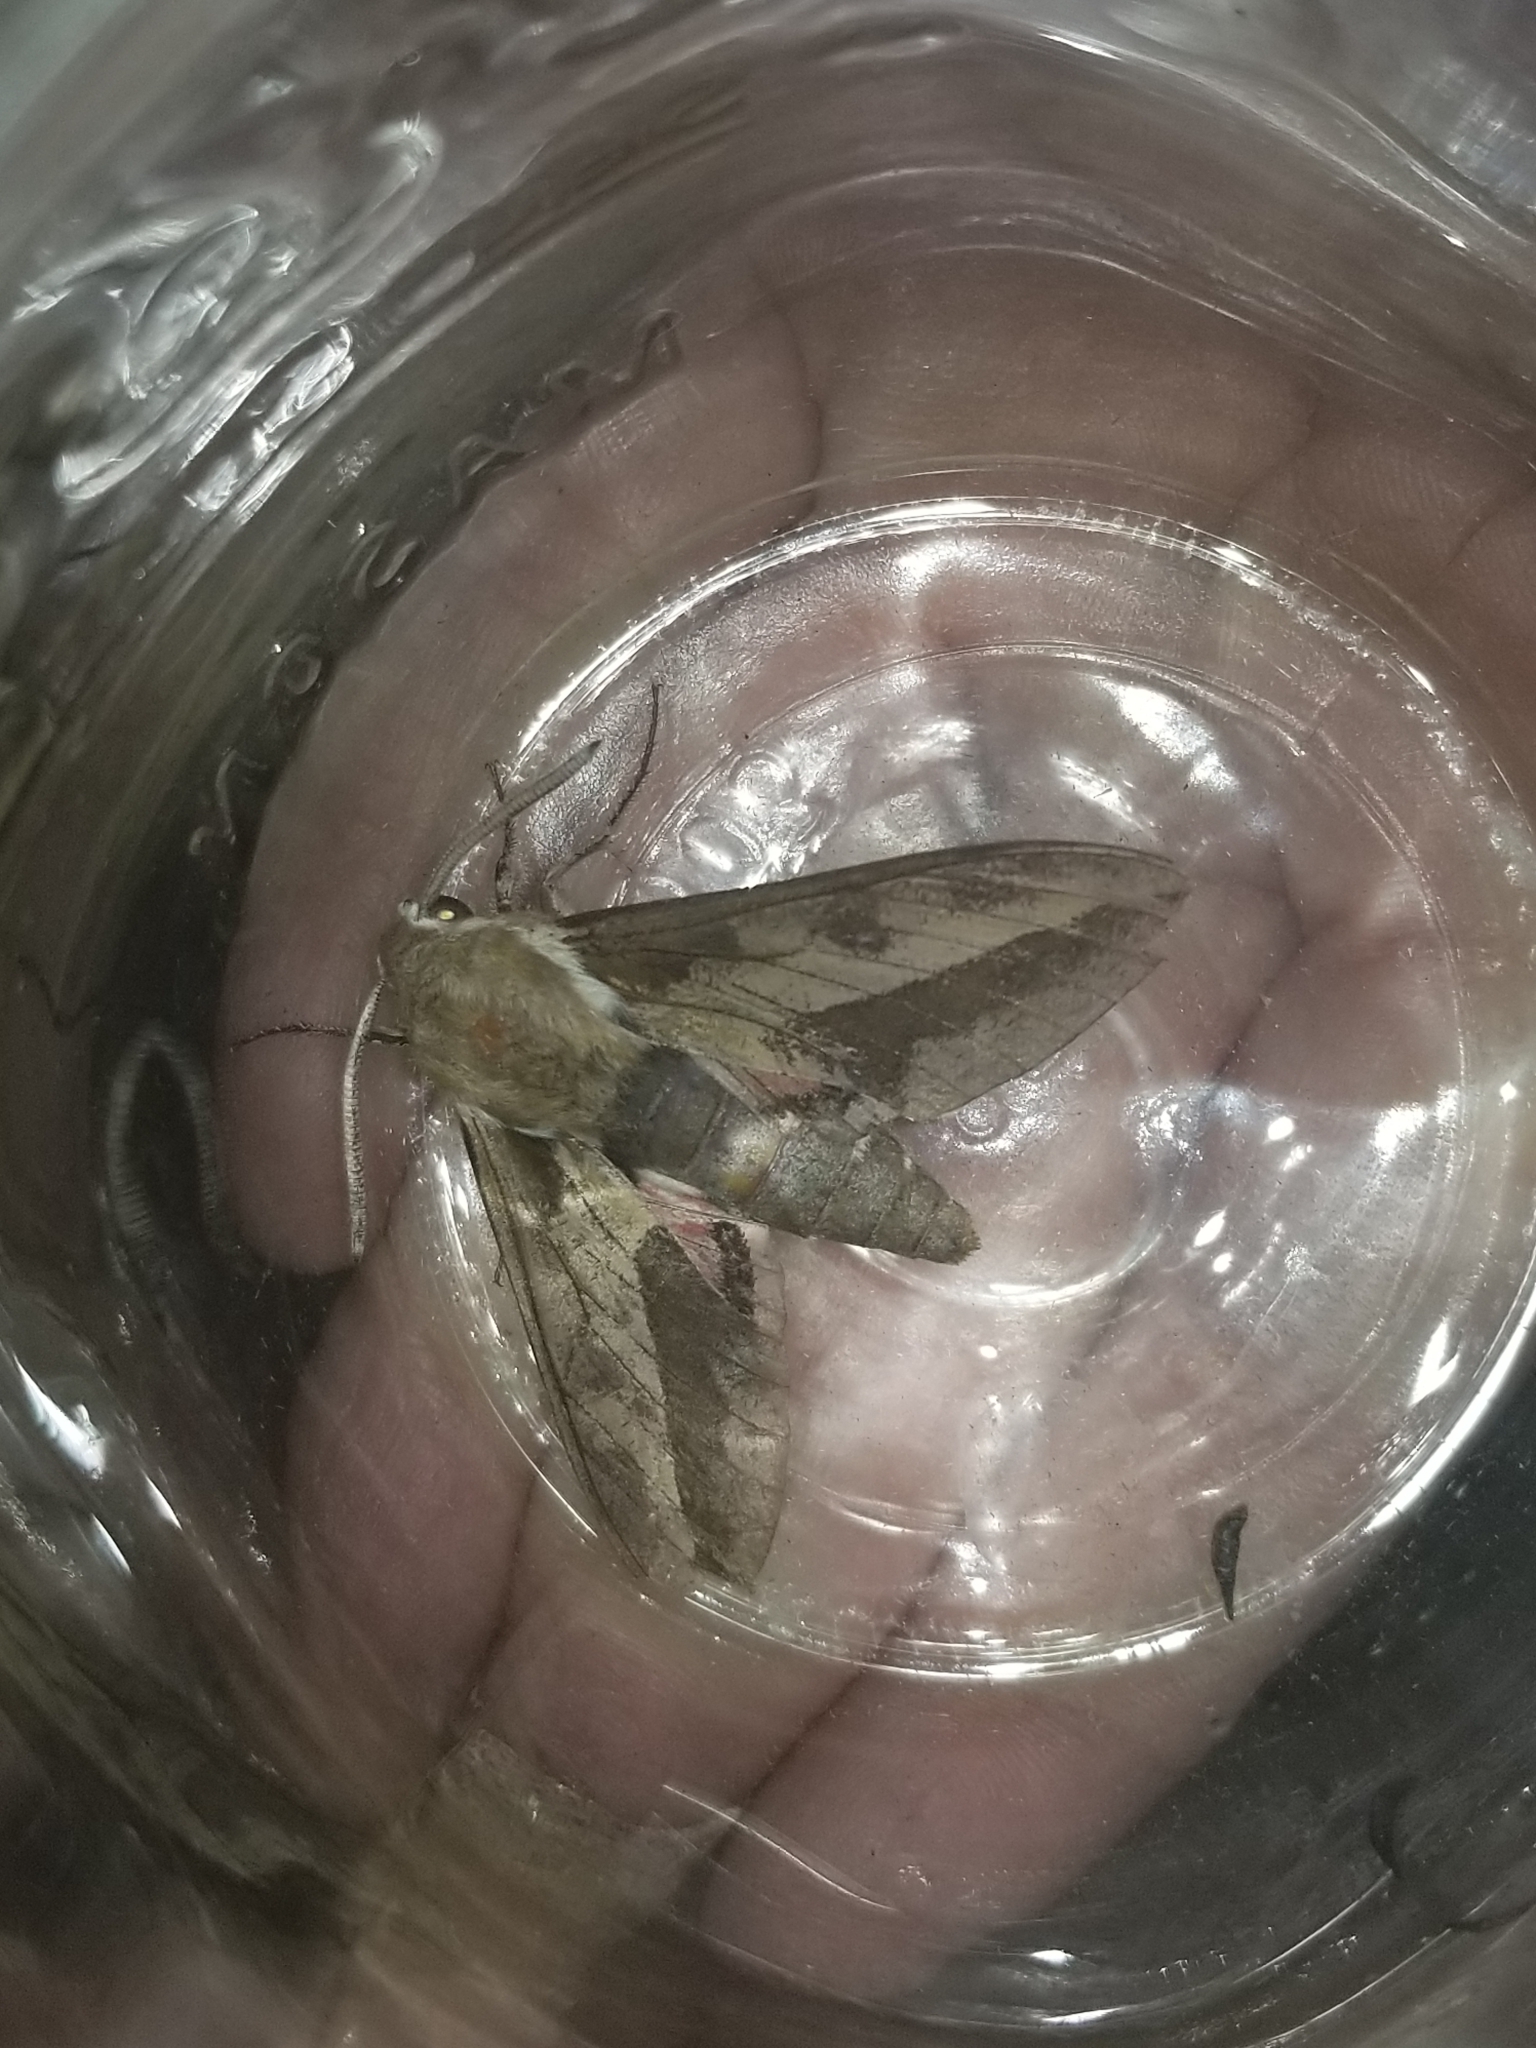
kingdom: Animalia
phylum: Arthropoda
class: Insecta
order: Lepidoptera
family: Sphingidae
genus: Hyles
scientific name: Hyles euphorbiae
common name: Spurge hawk-moth
